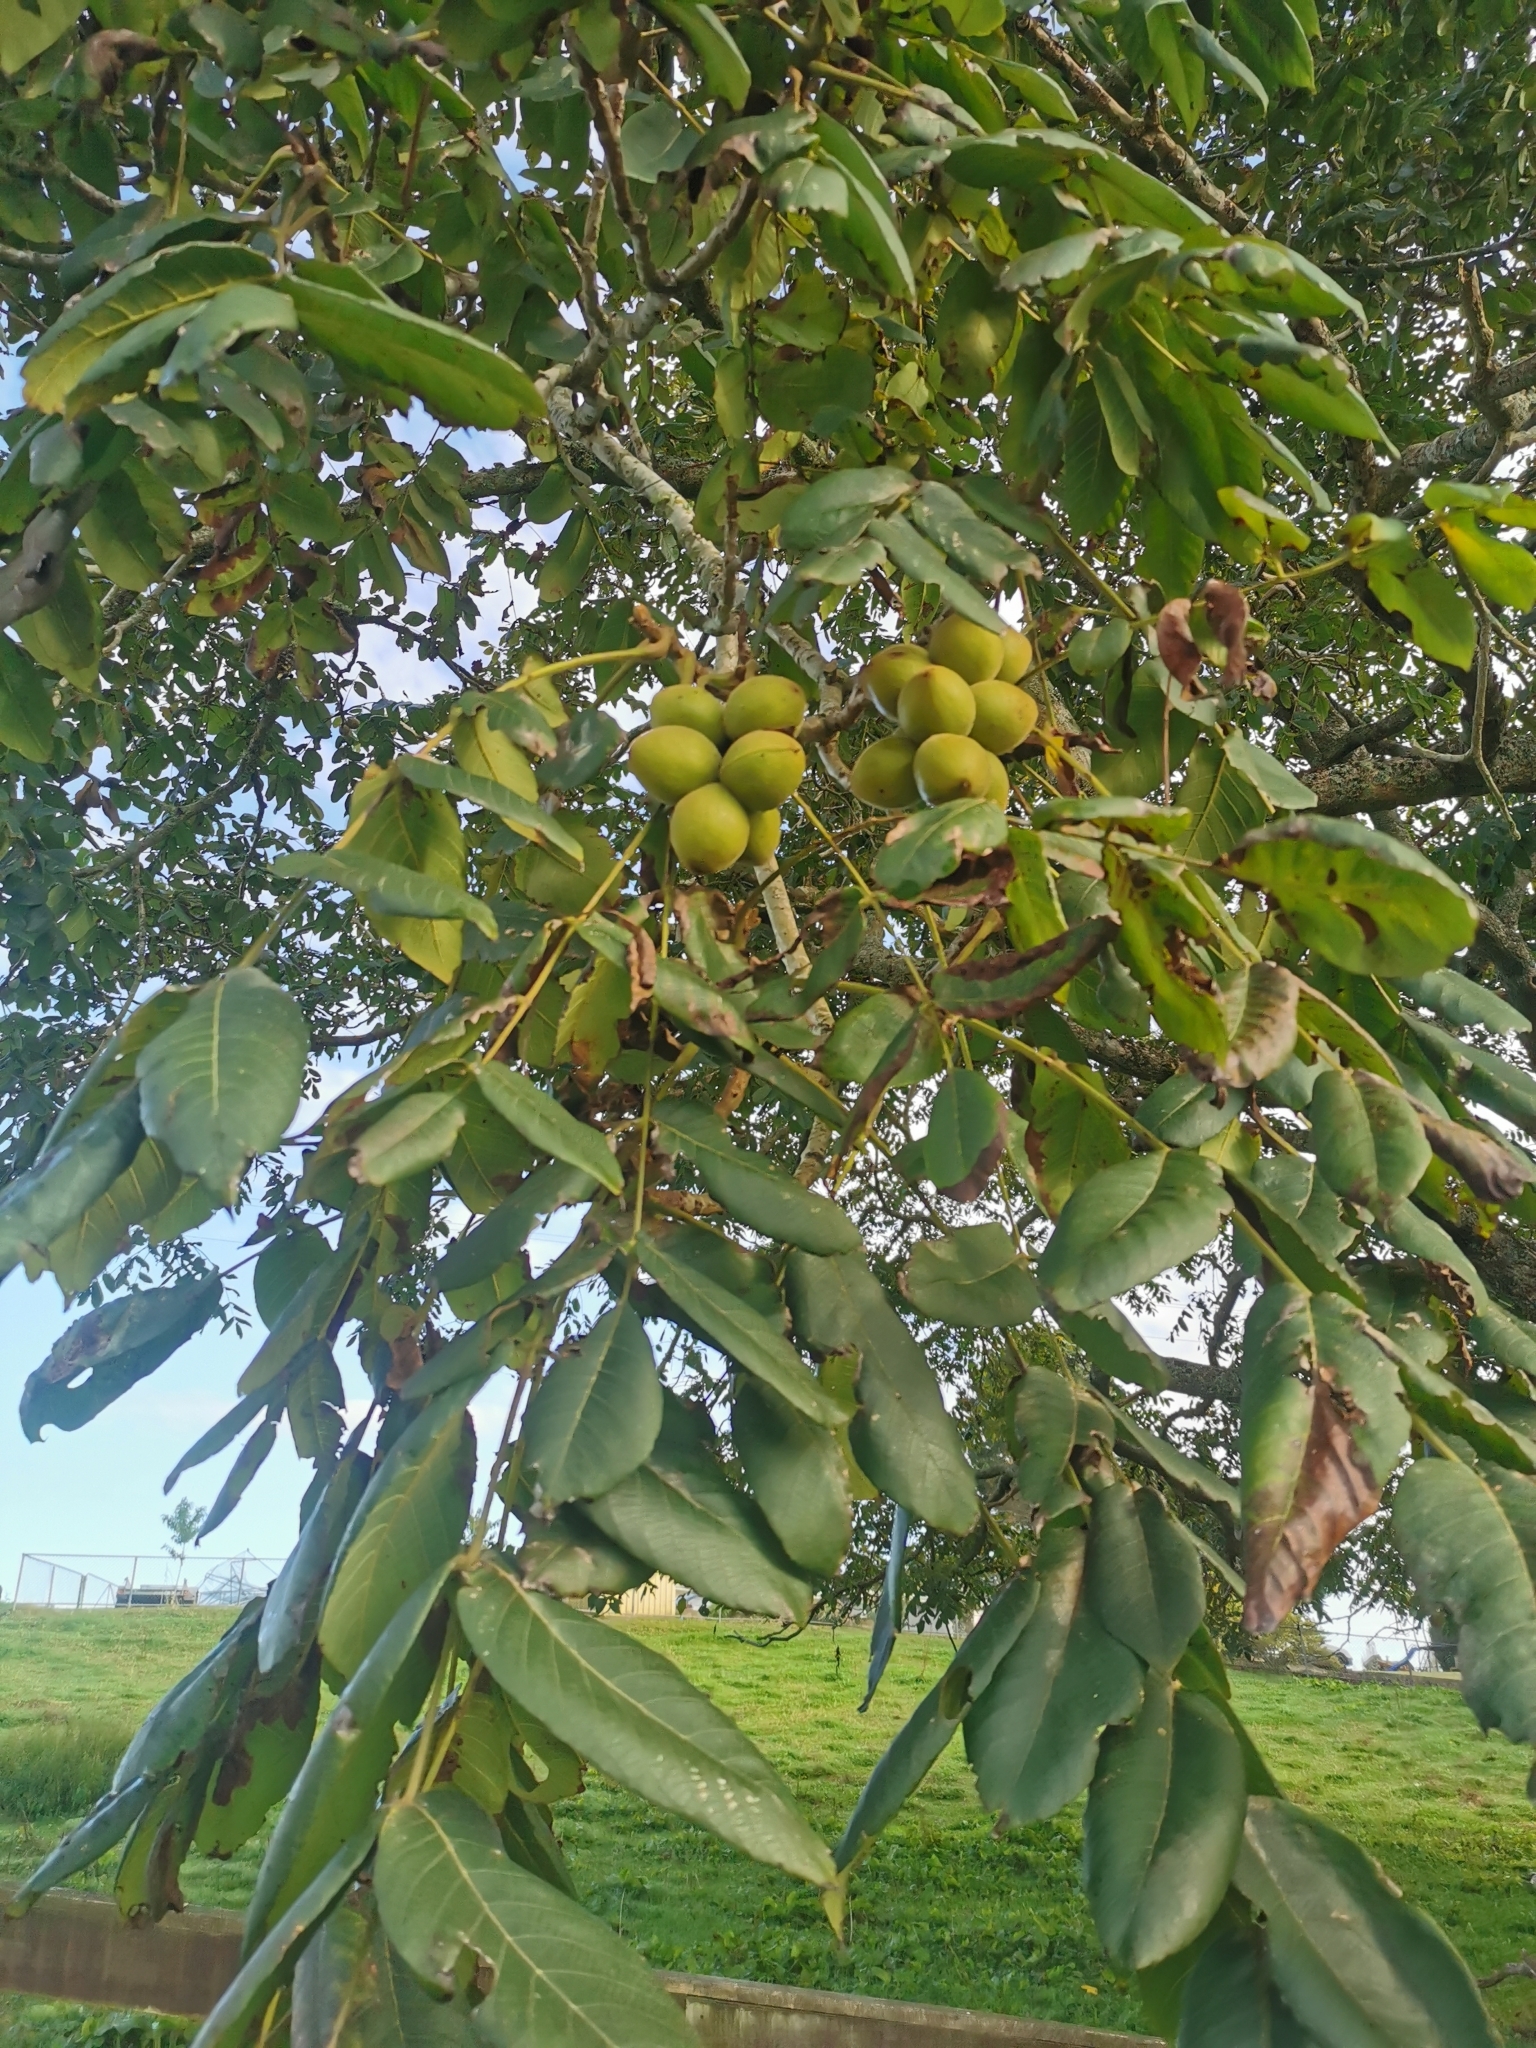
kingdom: Plantae
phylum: Tracheophyta
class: Magnoliopsida
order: Fagales
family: Juglandaceae
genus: Juglans
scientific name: Juglans ailantifolia
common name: Japanese walnut
